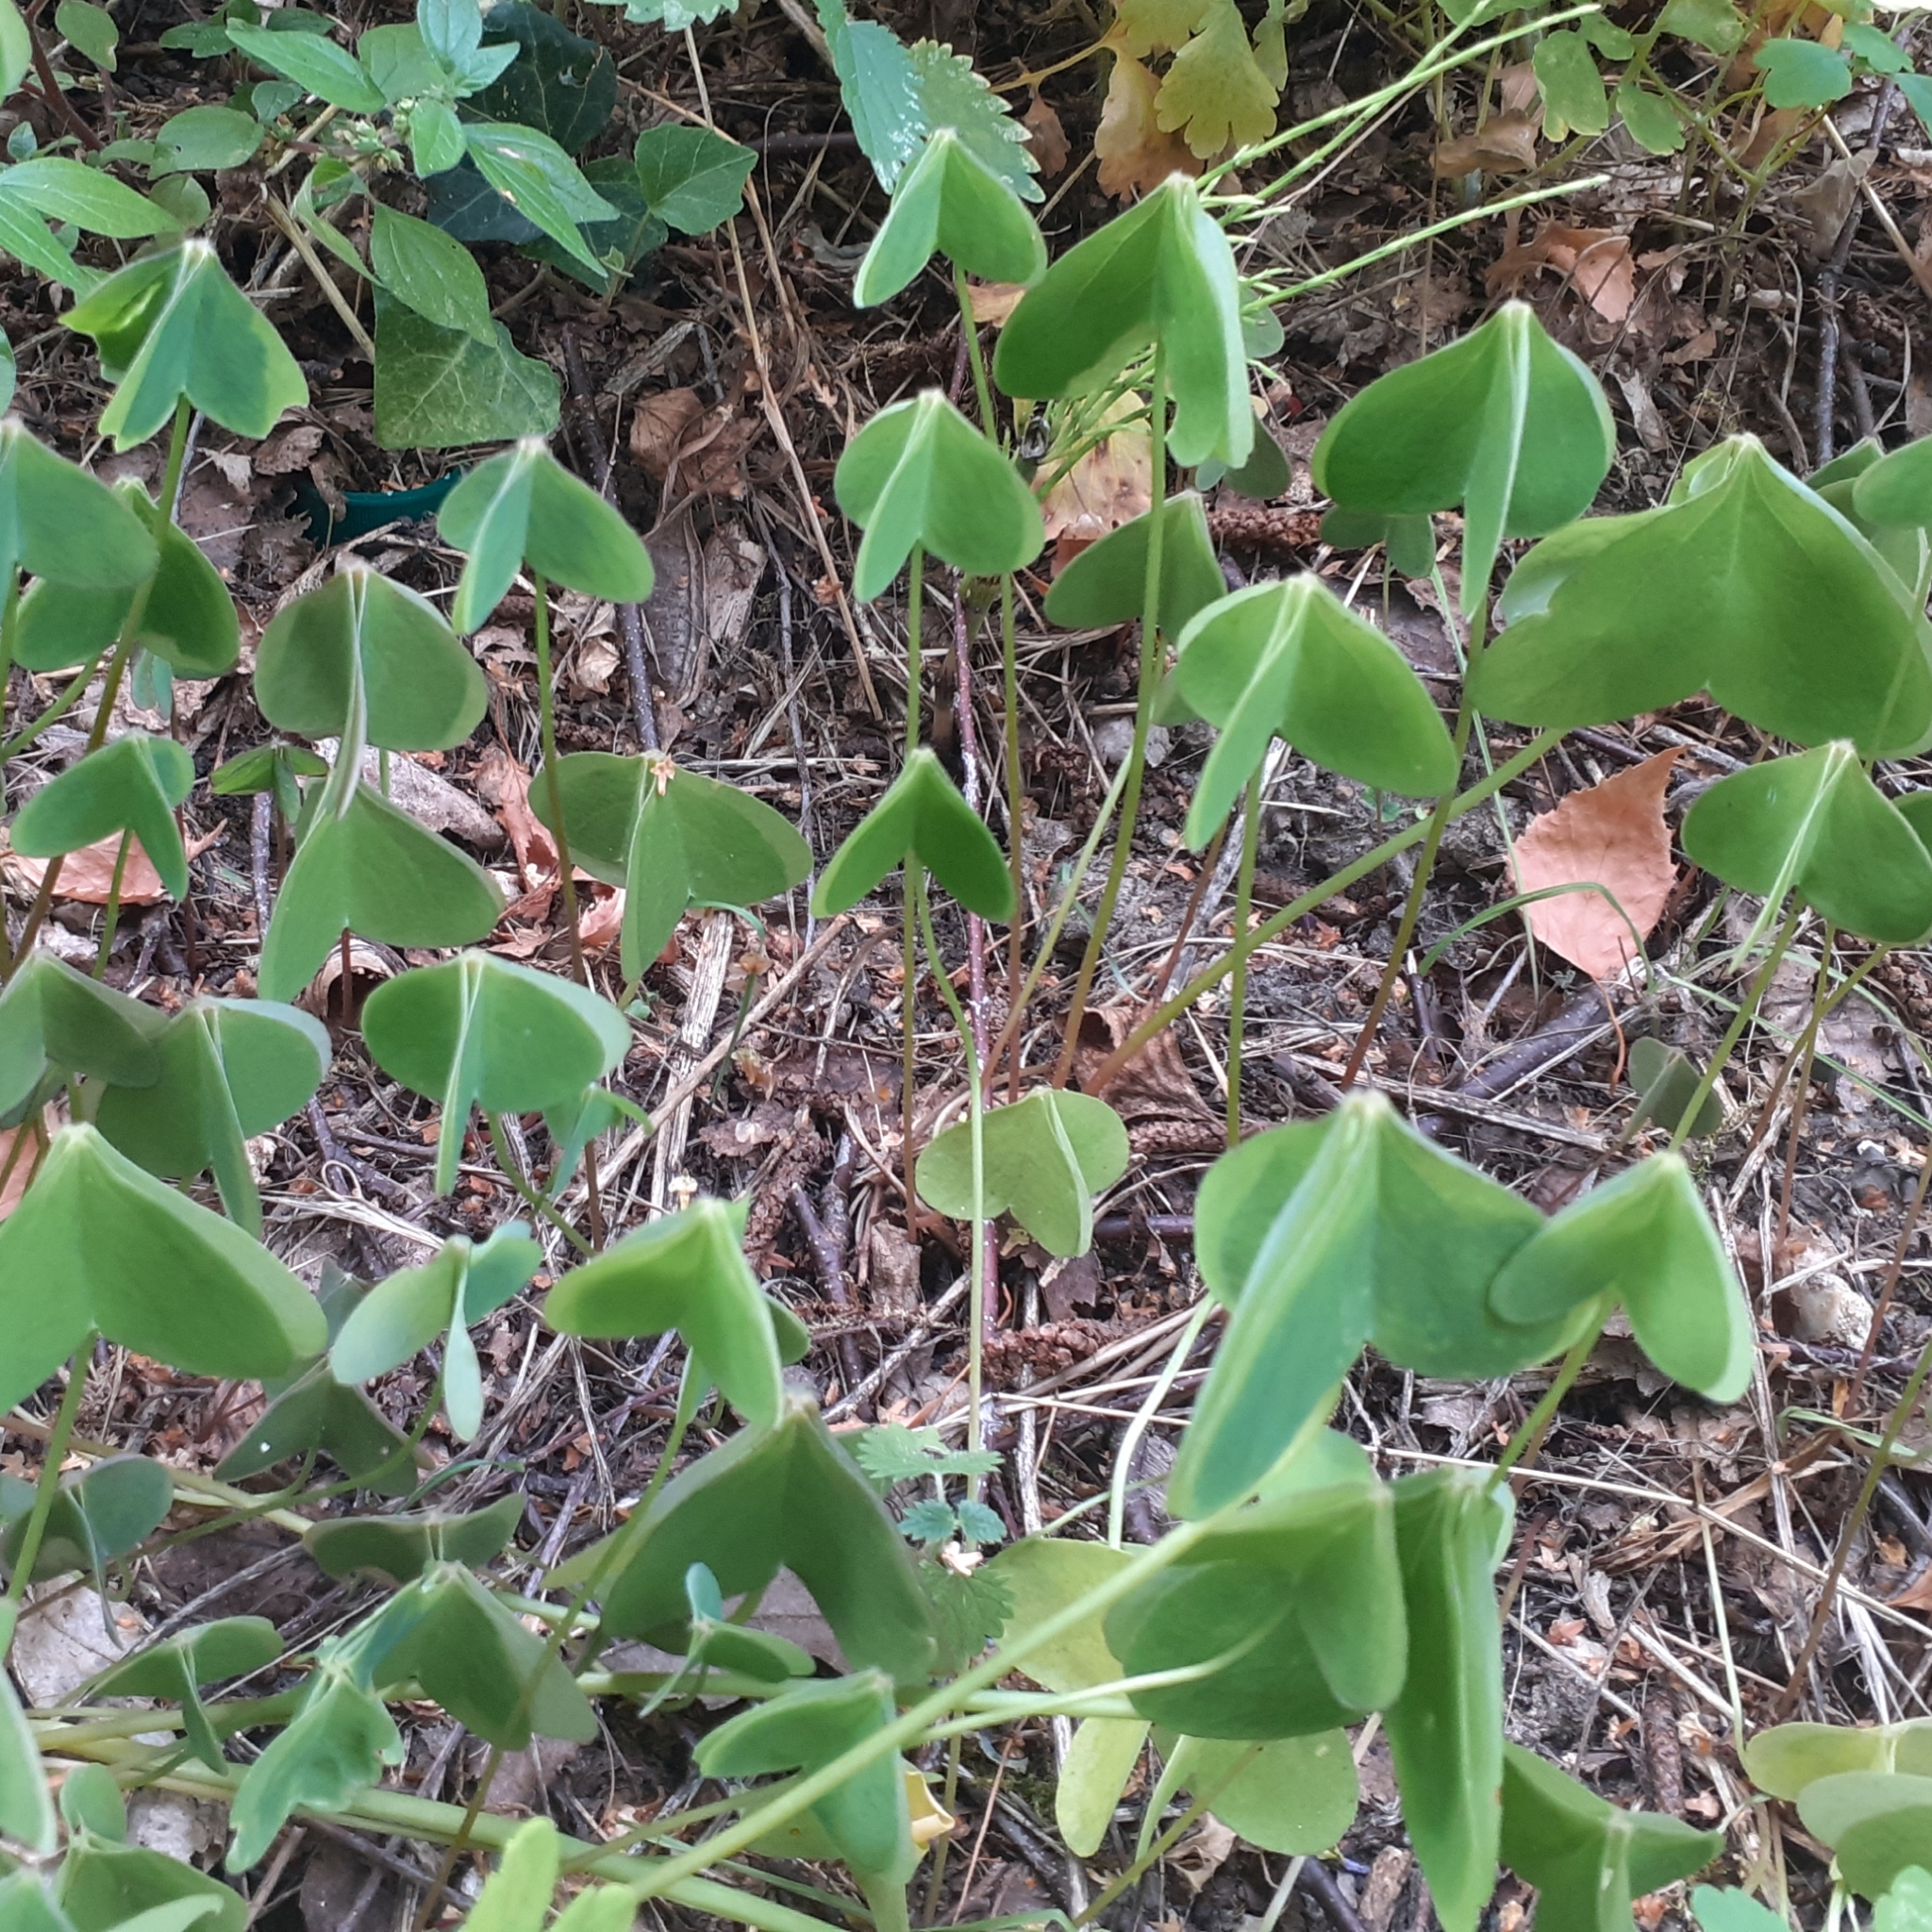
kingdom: Plantae
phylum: Tracheophyta
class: Magnoliopsida
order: Oxalidales
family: Oxalidaceae
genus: Oxalis
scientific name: Oxalis acetosella
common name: Wood-sorrel
